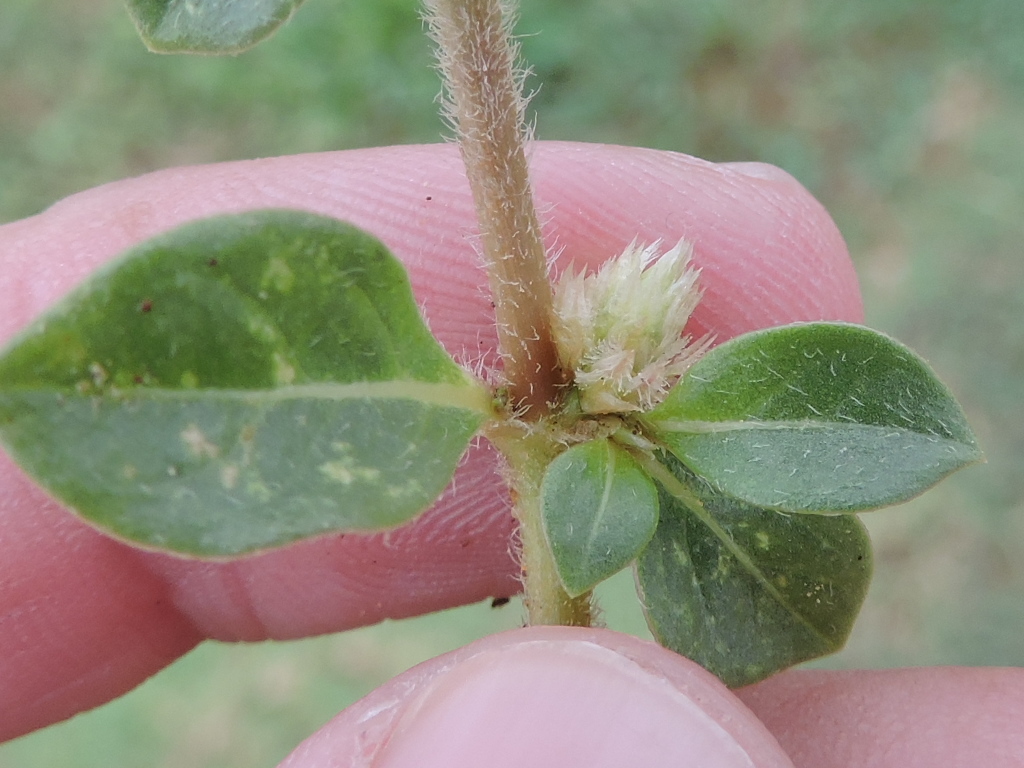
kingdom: Plantae
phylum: Tracheophyta
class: Magnoliopsida
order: Caryophyllales
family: Amaranthaceae
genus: Alternanthera
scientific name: Alternanthera caracasana
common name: Washerwoman
